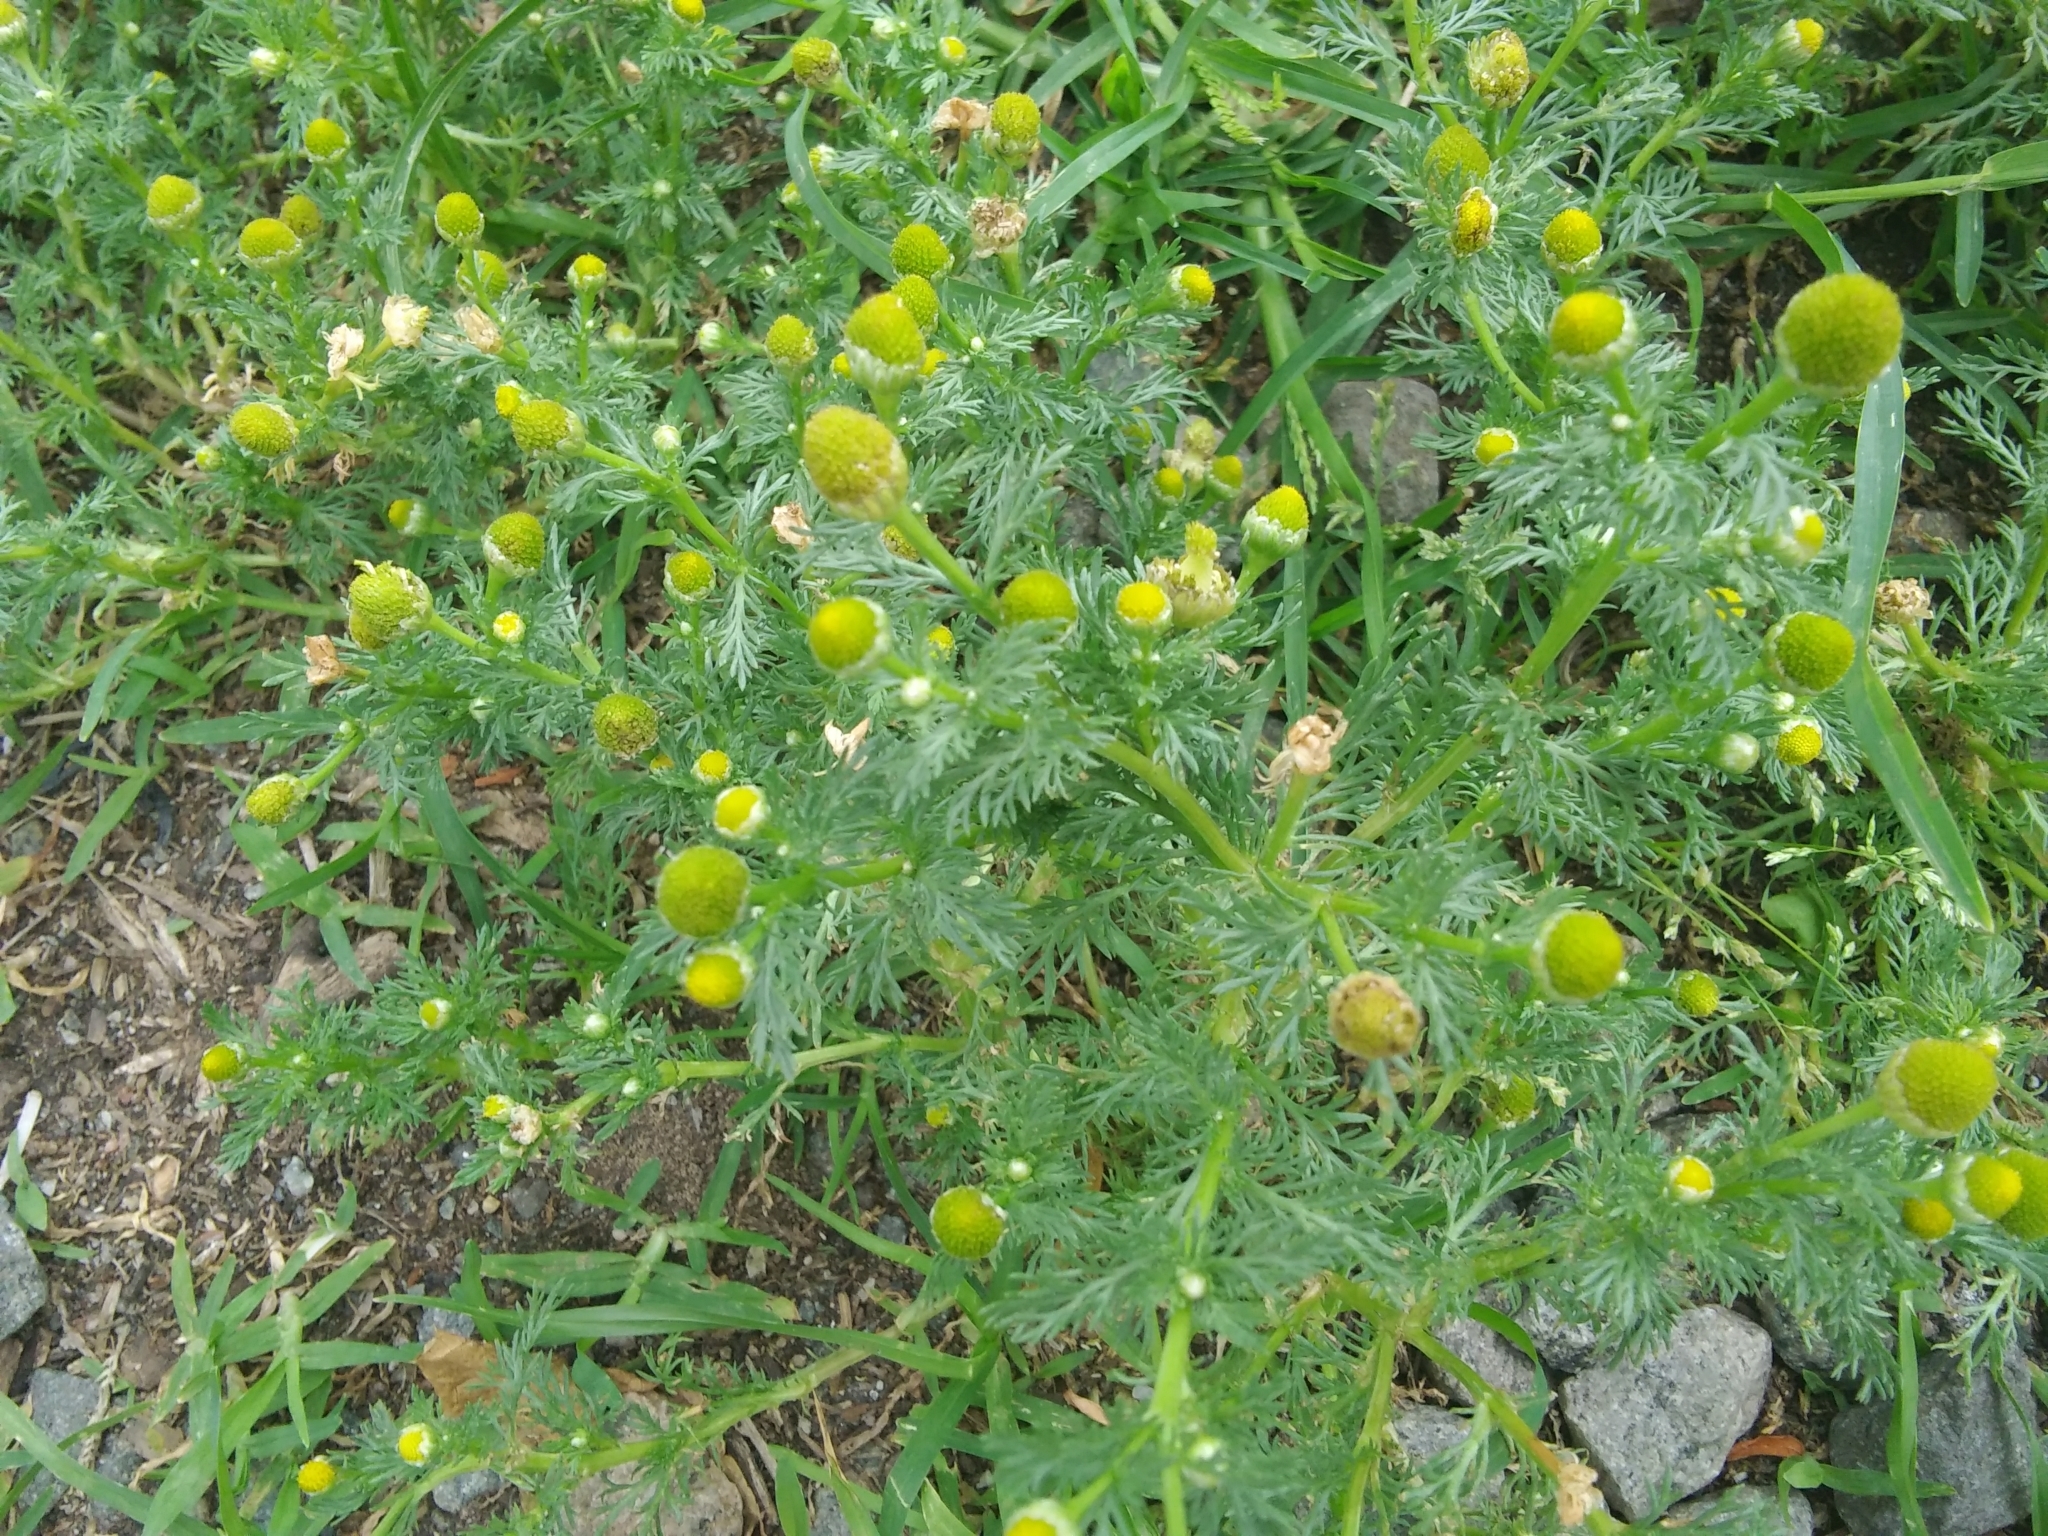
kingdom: Plantae
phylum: Tracheophyta
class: Magnoliopsida
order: Asterales
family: Asteraceae
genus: Matricaria
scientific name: Matricaria discoidea
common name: Disc mayweed
